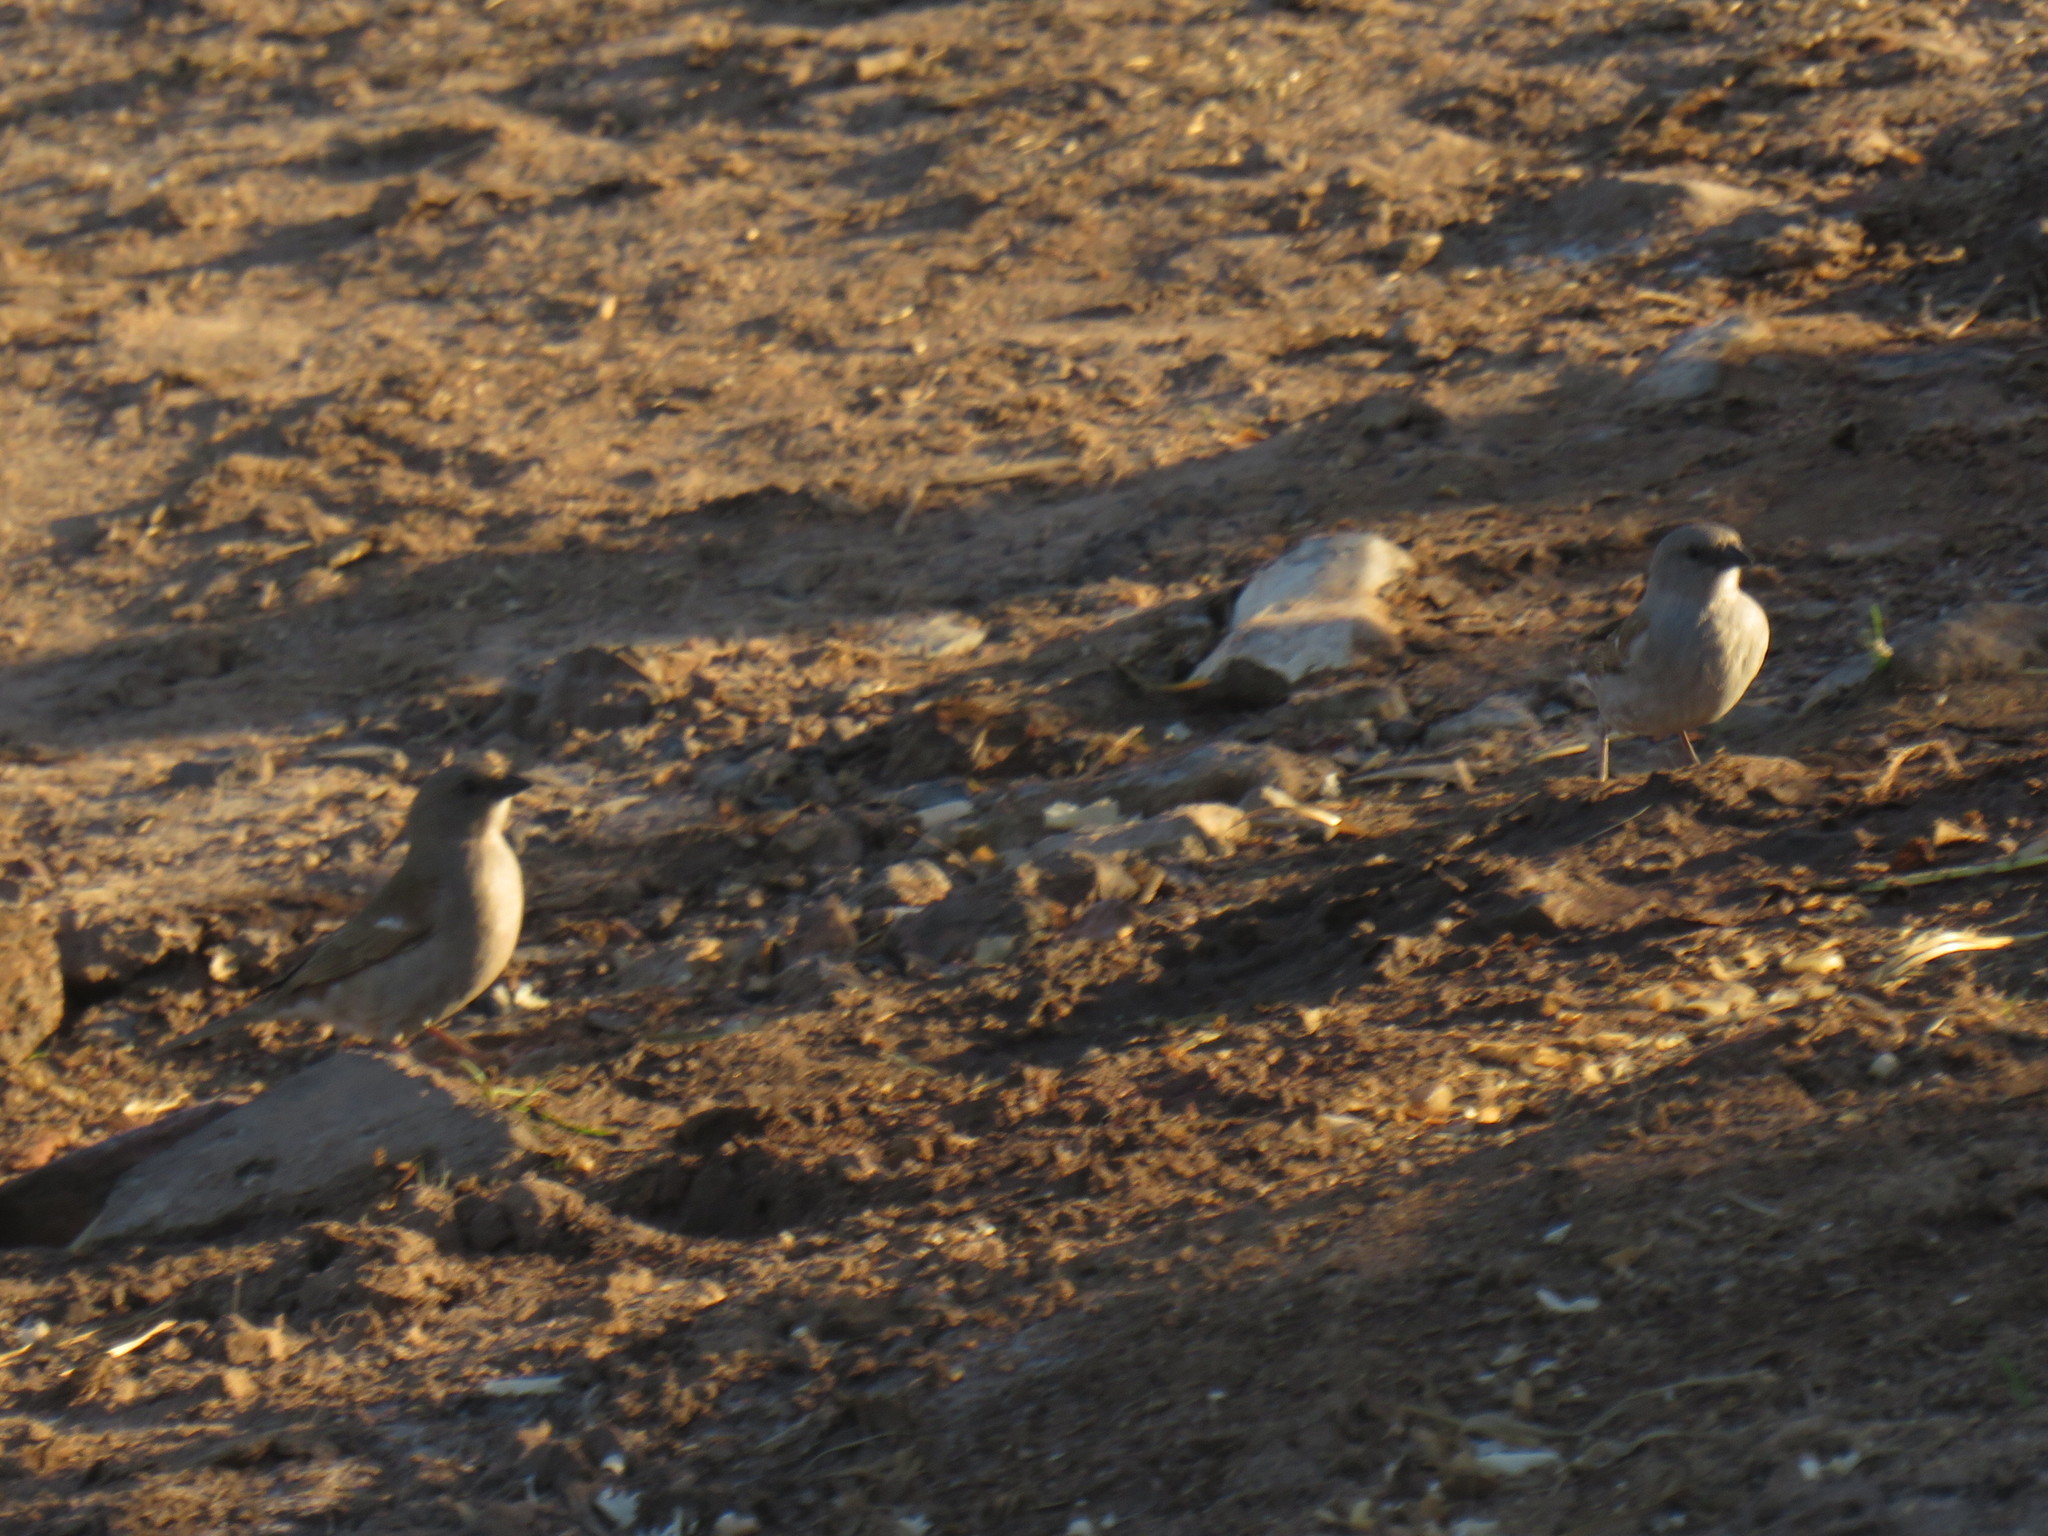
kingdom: Animalia
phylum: Chordata
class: Aves
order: Passeriformes
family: Passeridae
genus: Passer
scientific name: Passer diffusus
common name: Southern grey-headed sparrow
